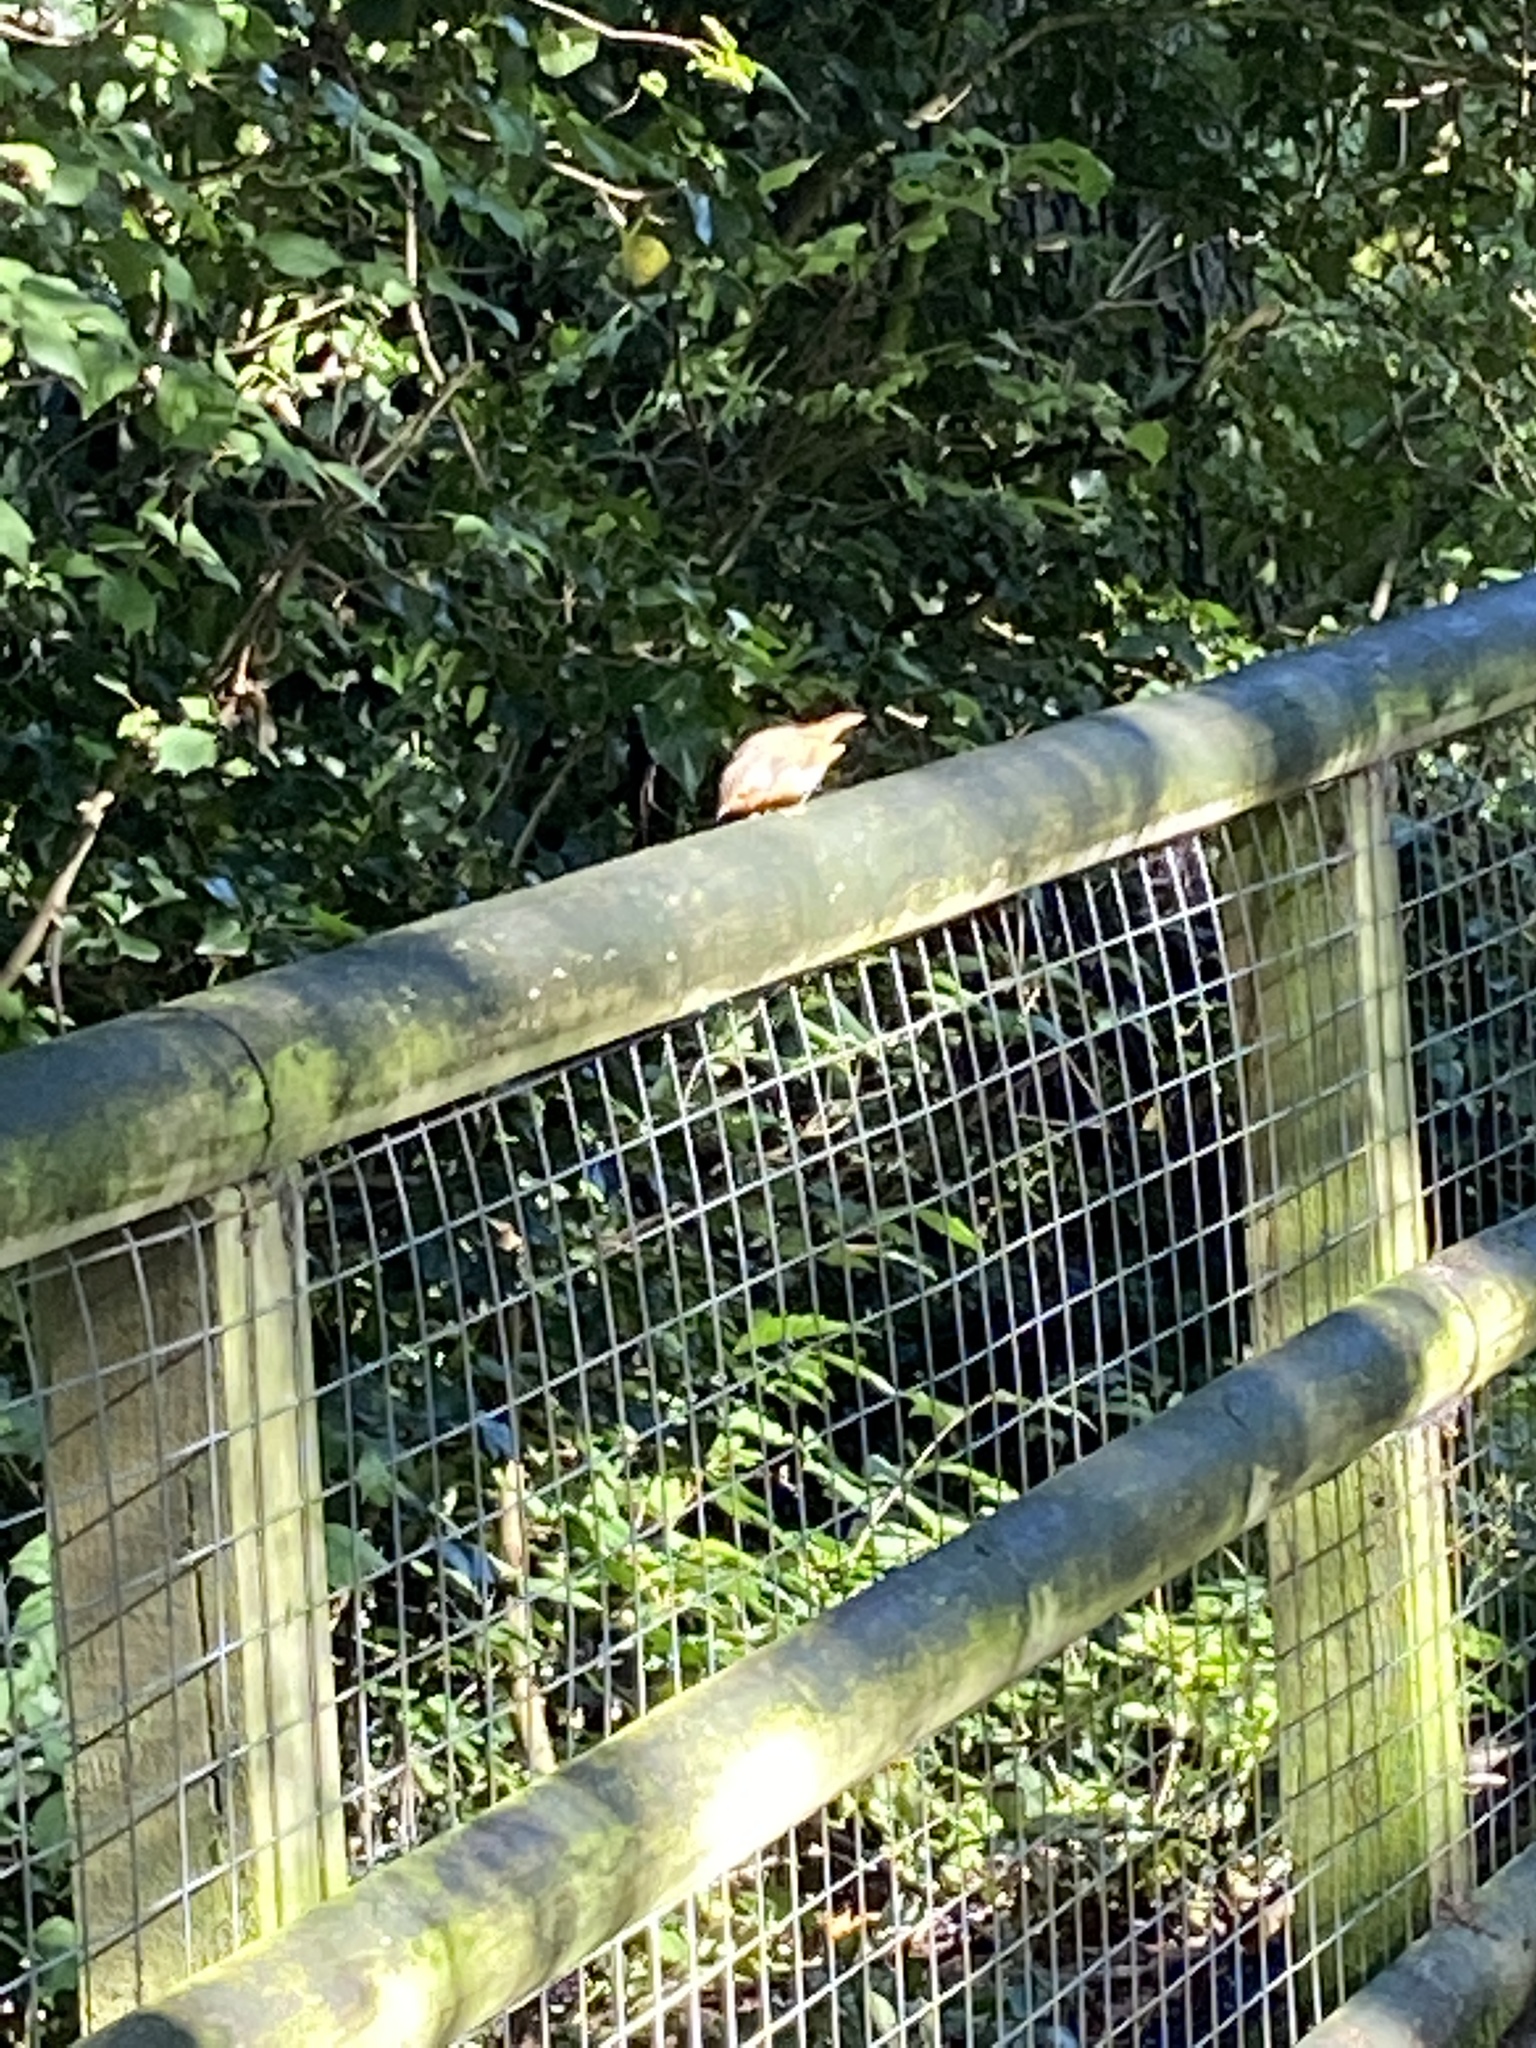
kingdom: Animalia
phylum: Chordata
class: Aves
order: Passeriformes
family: Muscicapidae
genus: Erithacus
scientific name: Erithacus rubecula
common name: European robin
